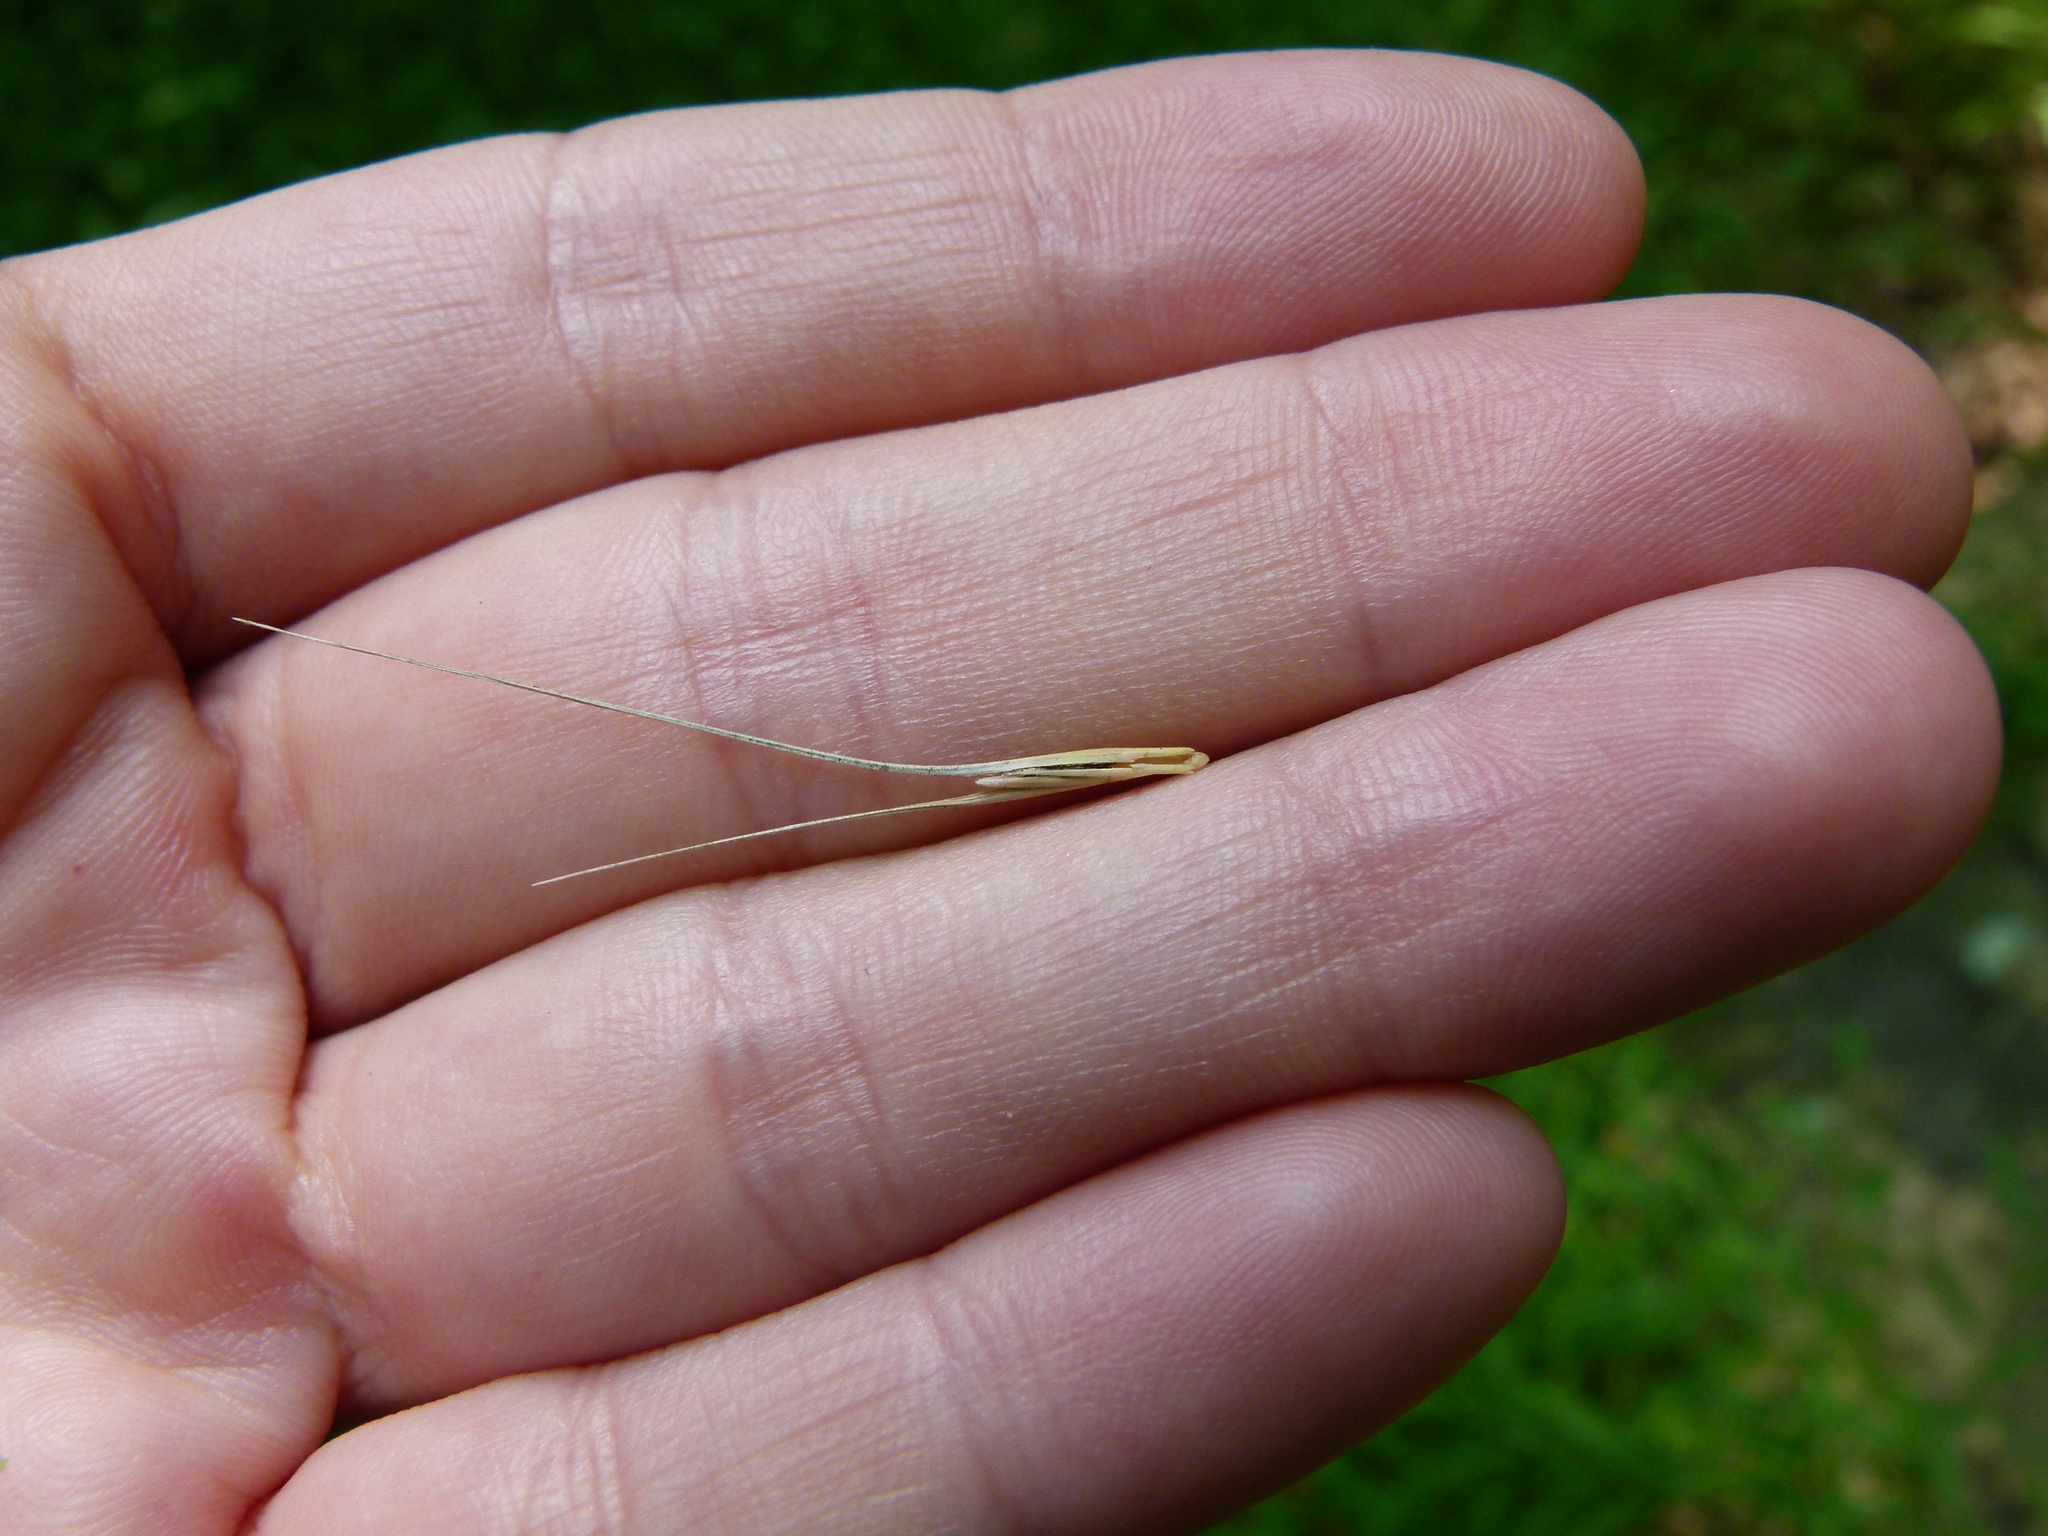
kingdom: Plantae
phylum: Tracheophyta
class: Liliopsida
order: Poales
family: Poaceae
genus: Elymus
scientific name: Elymus hystrix
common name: Bottlebrush grass
